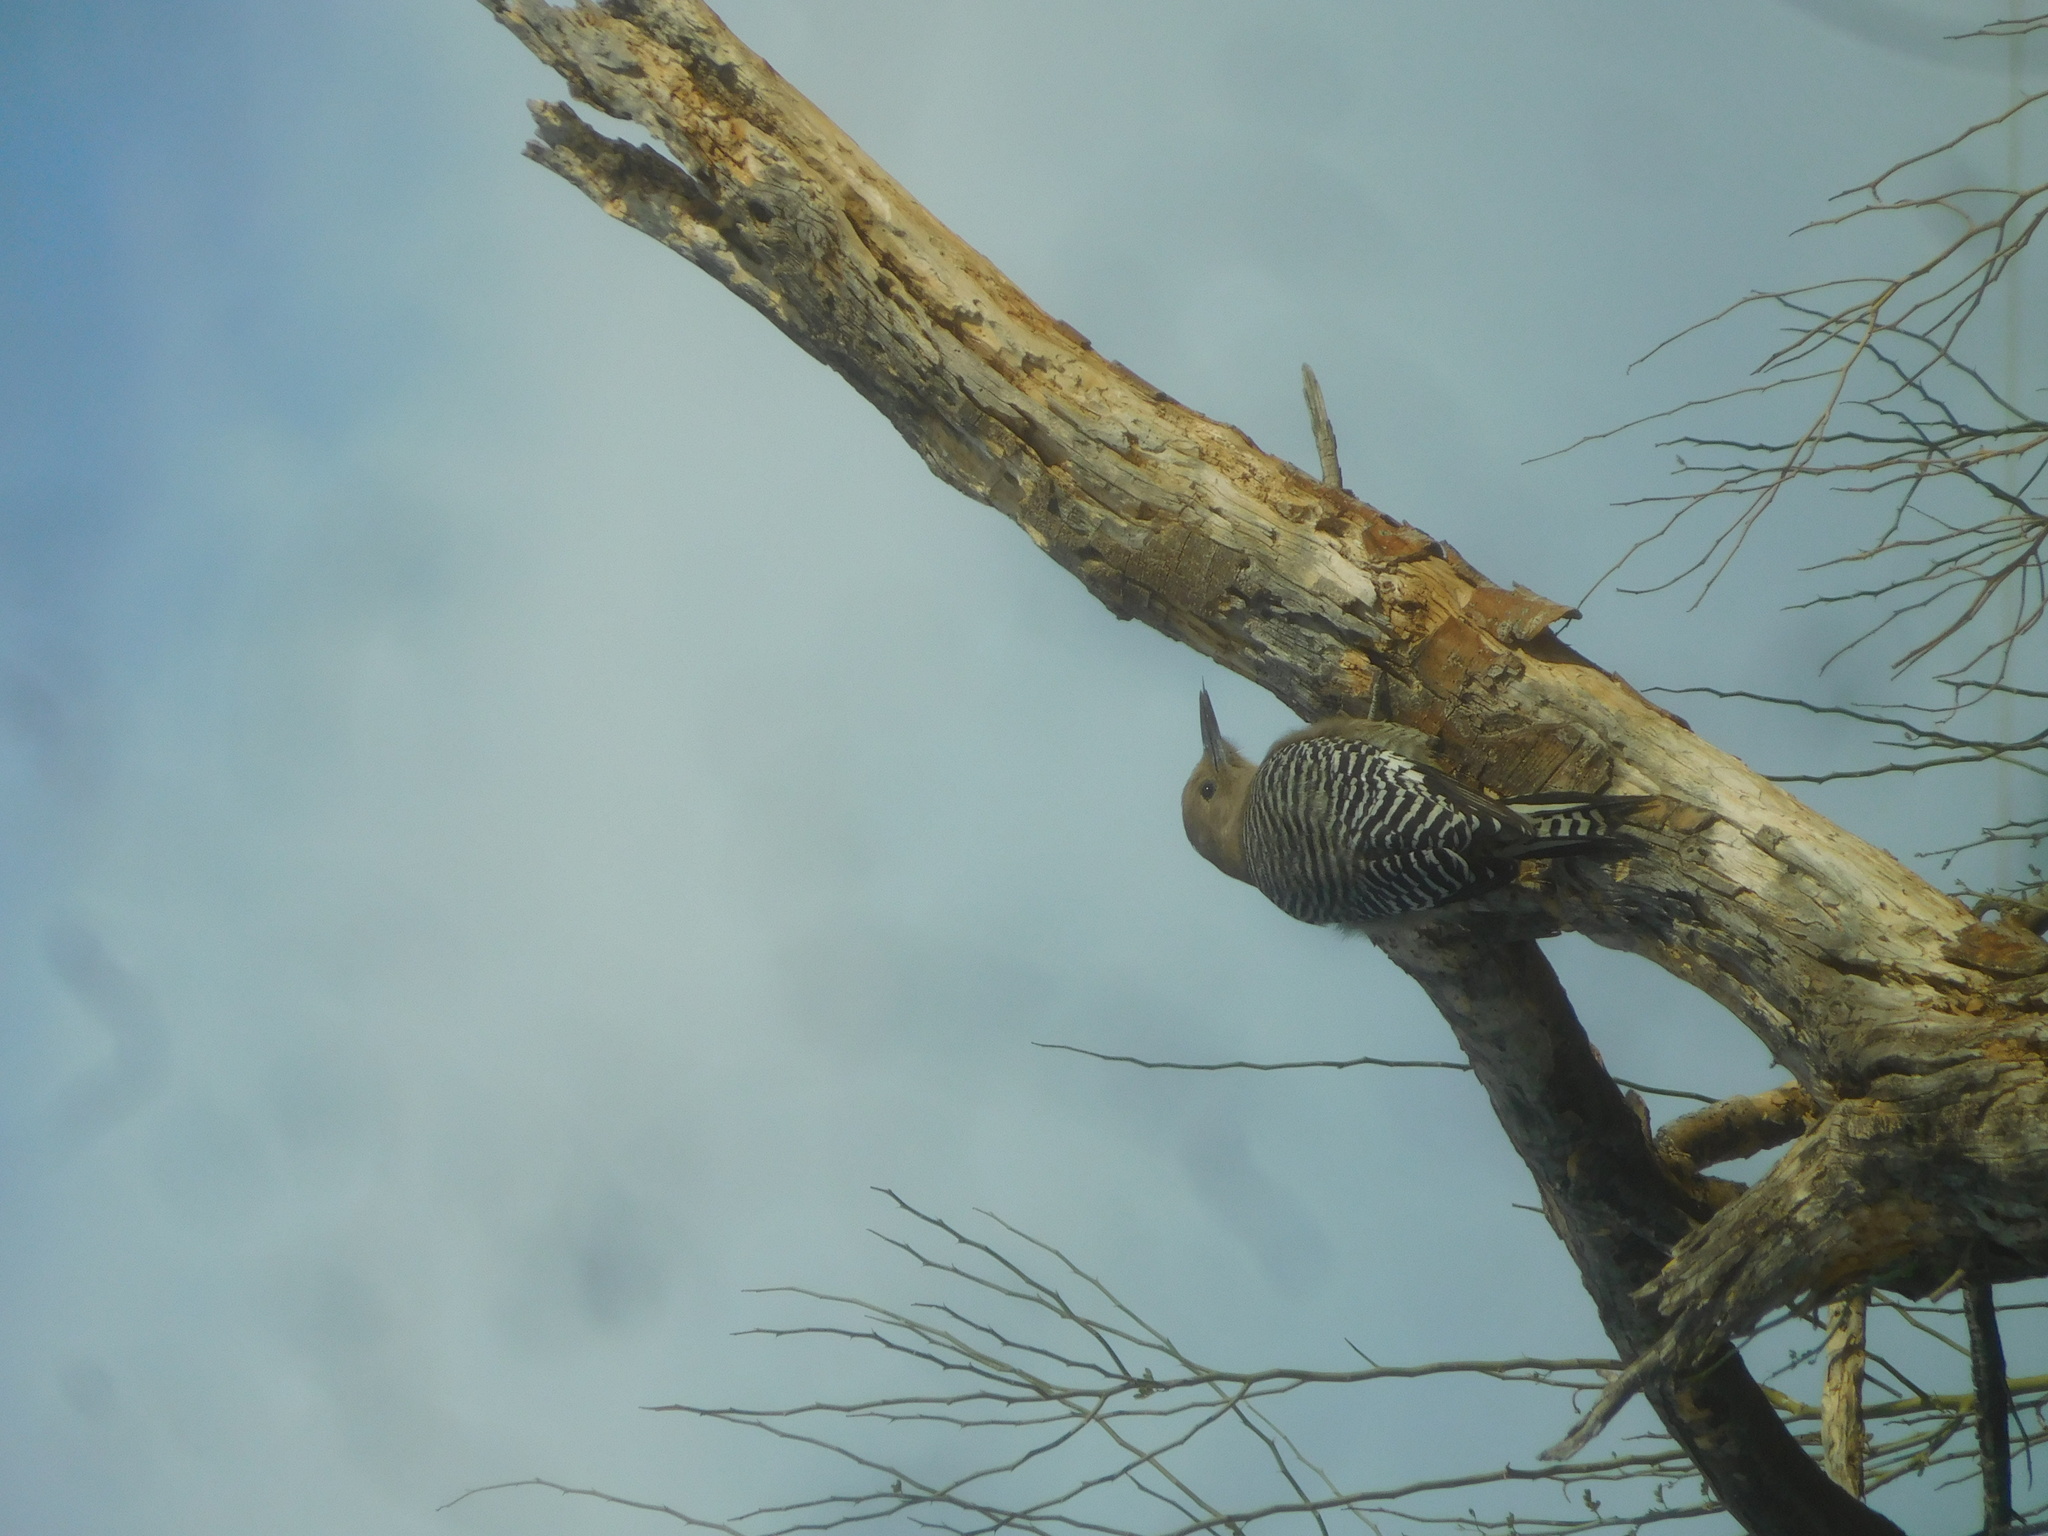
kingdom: Animalia
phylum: Chordata
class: Aves
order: Piciformes
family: Picidae
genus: Melanerpes
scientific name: Melanerpes uropygialis
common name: Gila woodpecker
